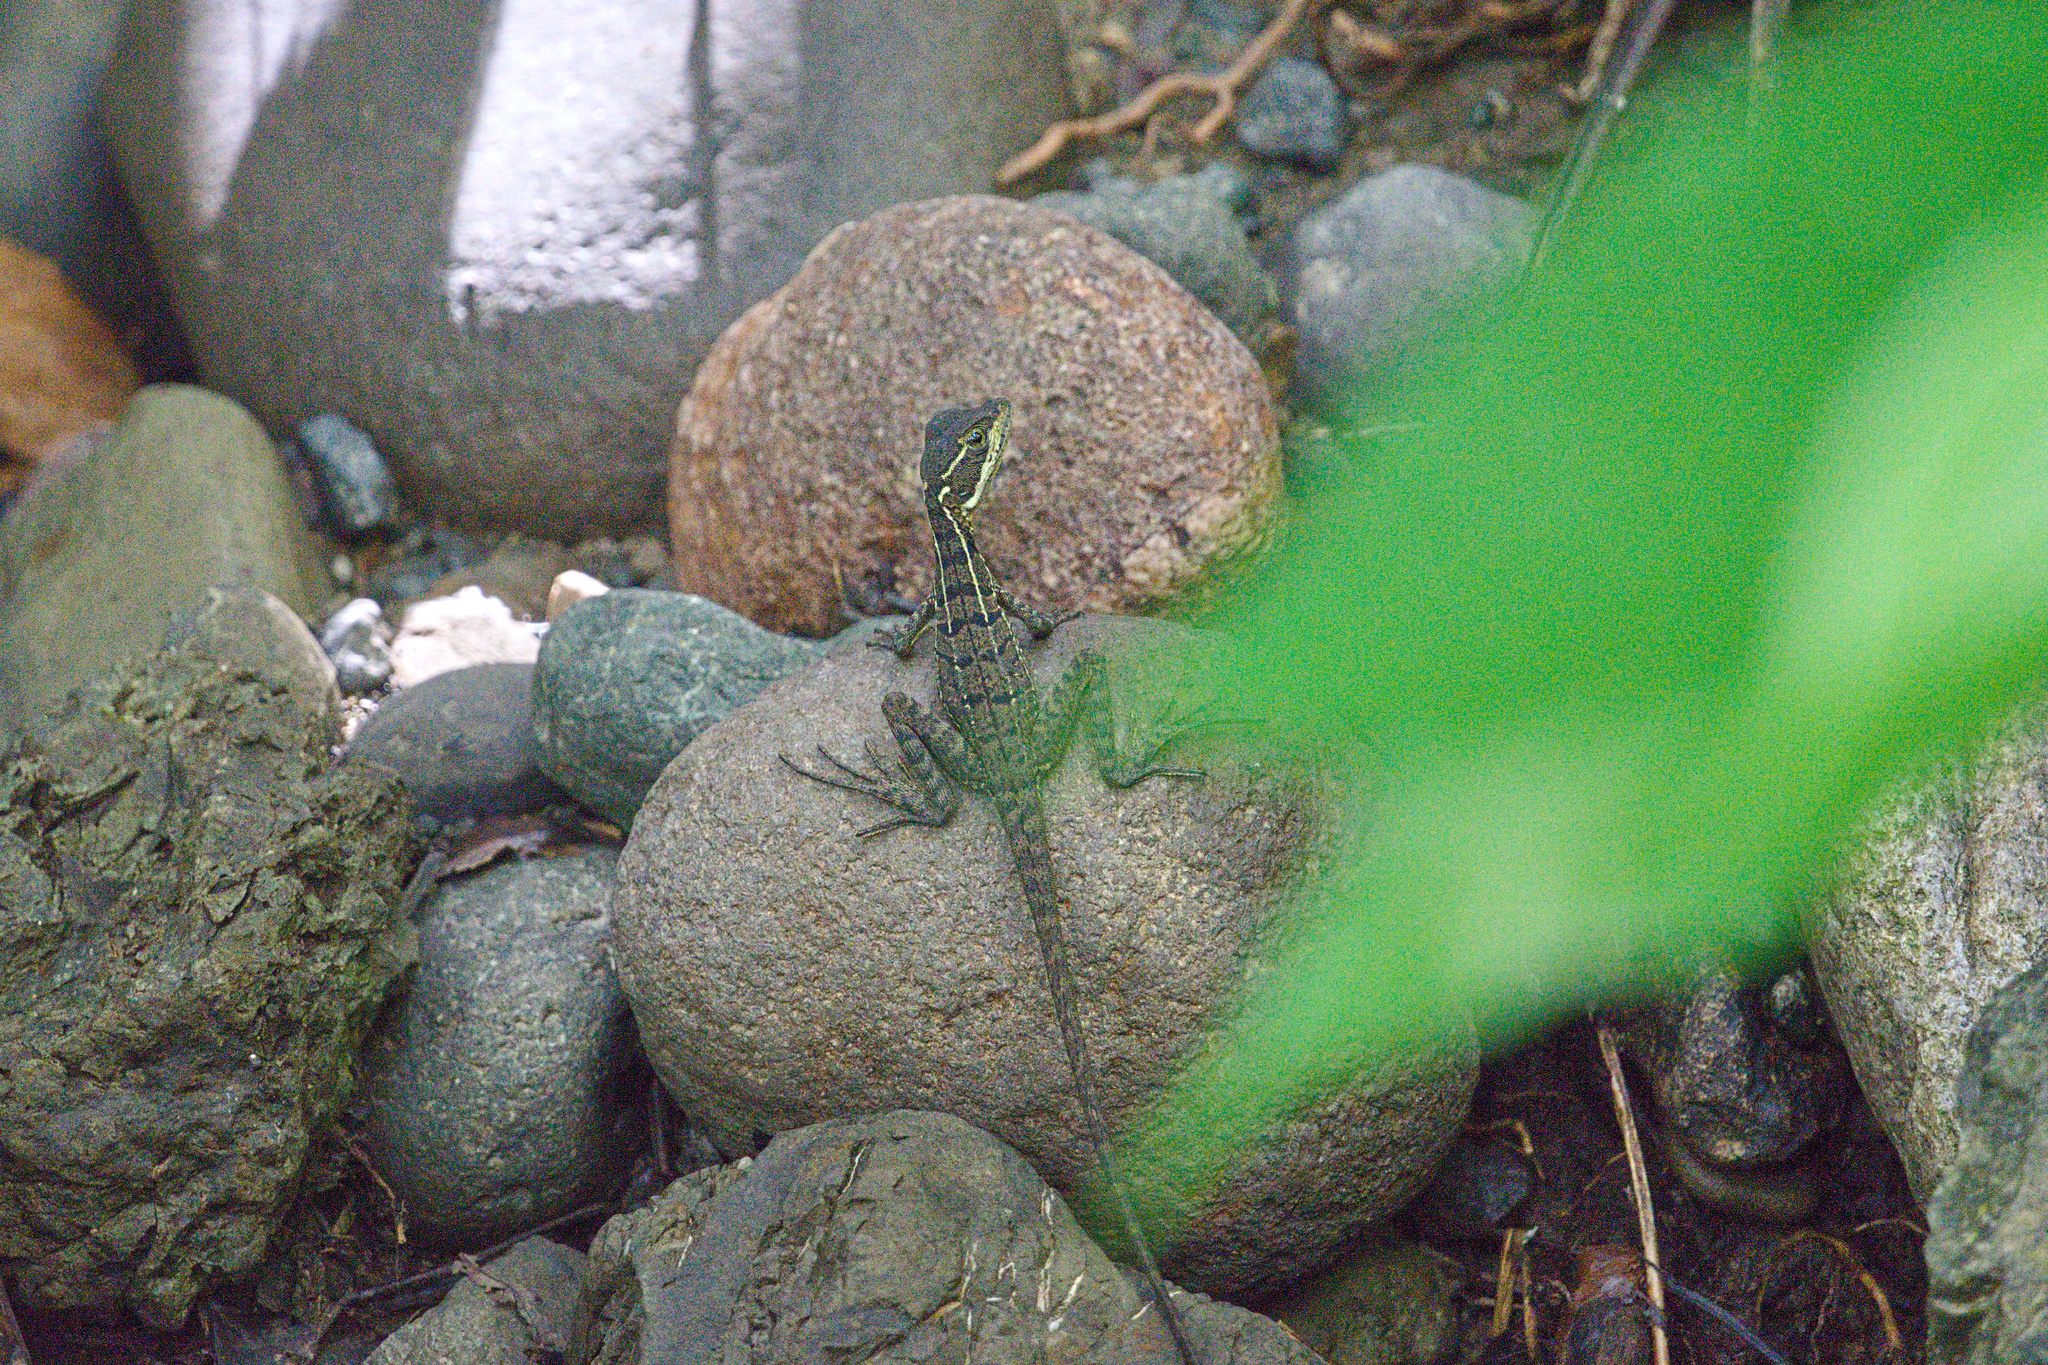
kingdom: Animalia
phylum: Chordata
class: Squamata
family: Corytophanidae
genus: Basiliscus
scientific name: Basiliscus basiliscus
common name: Common basilisk
